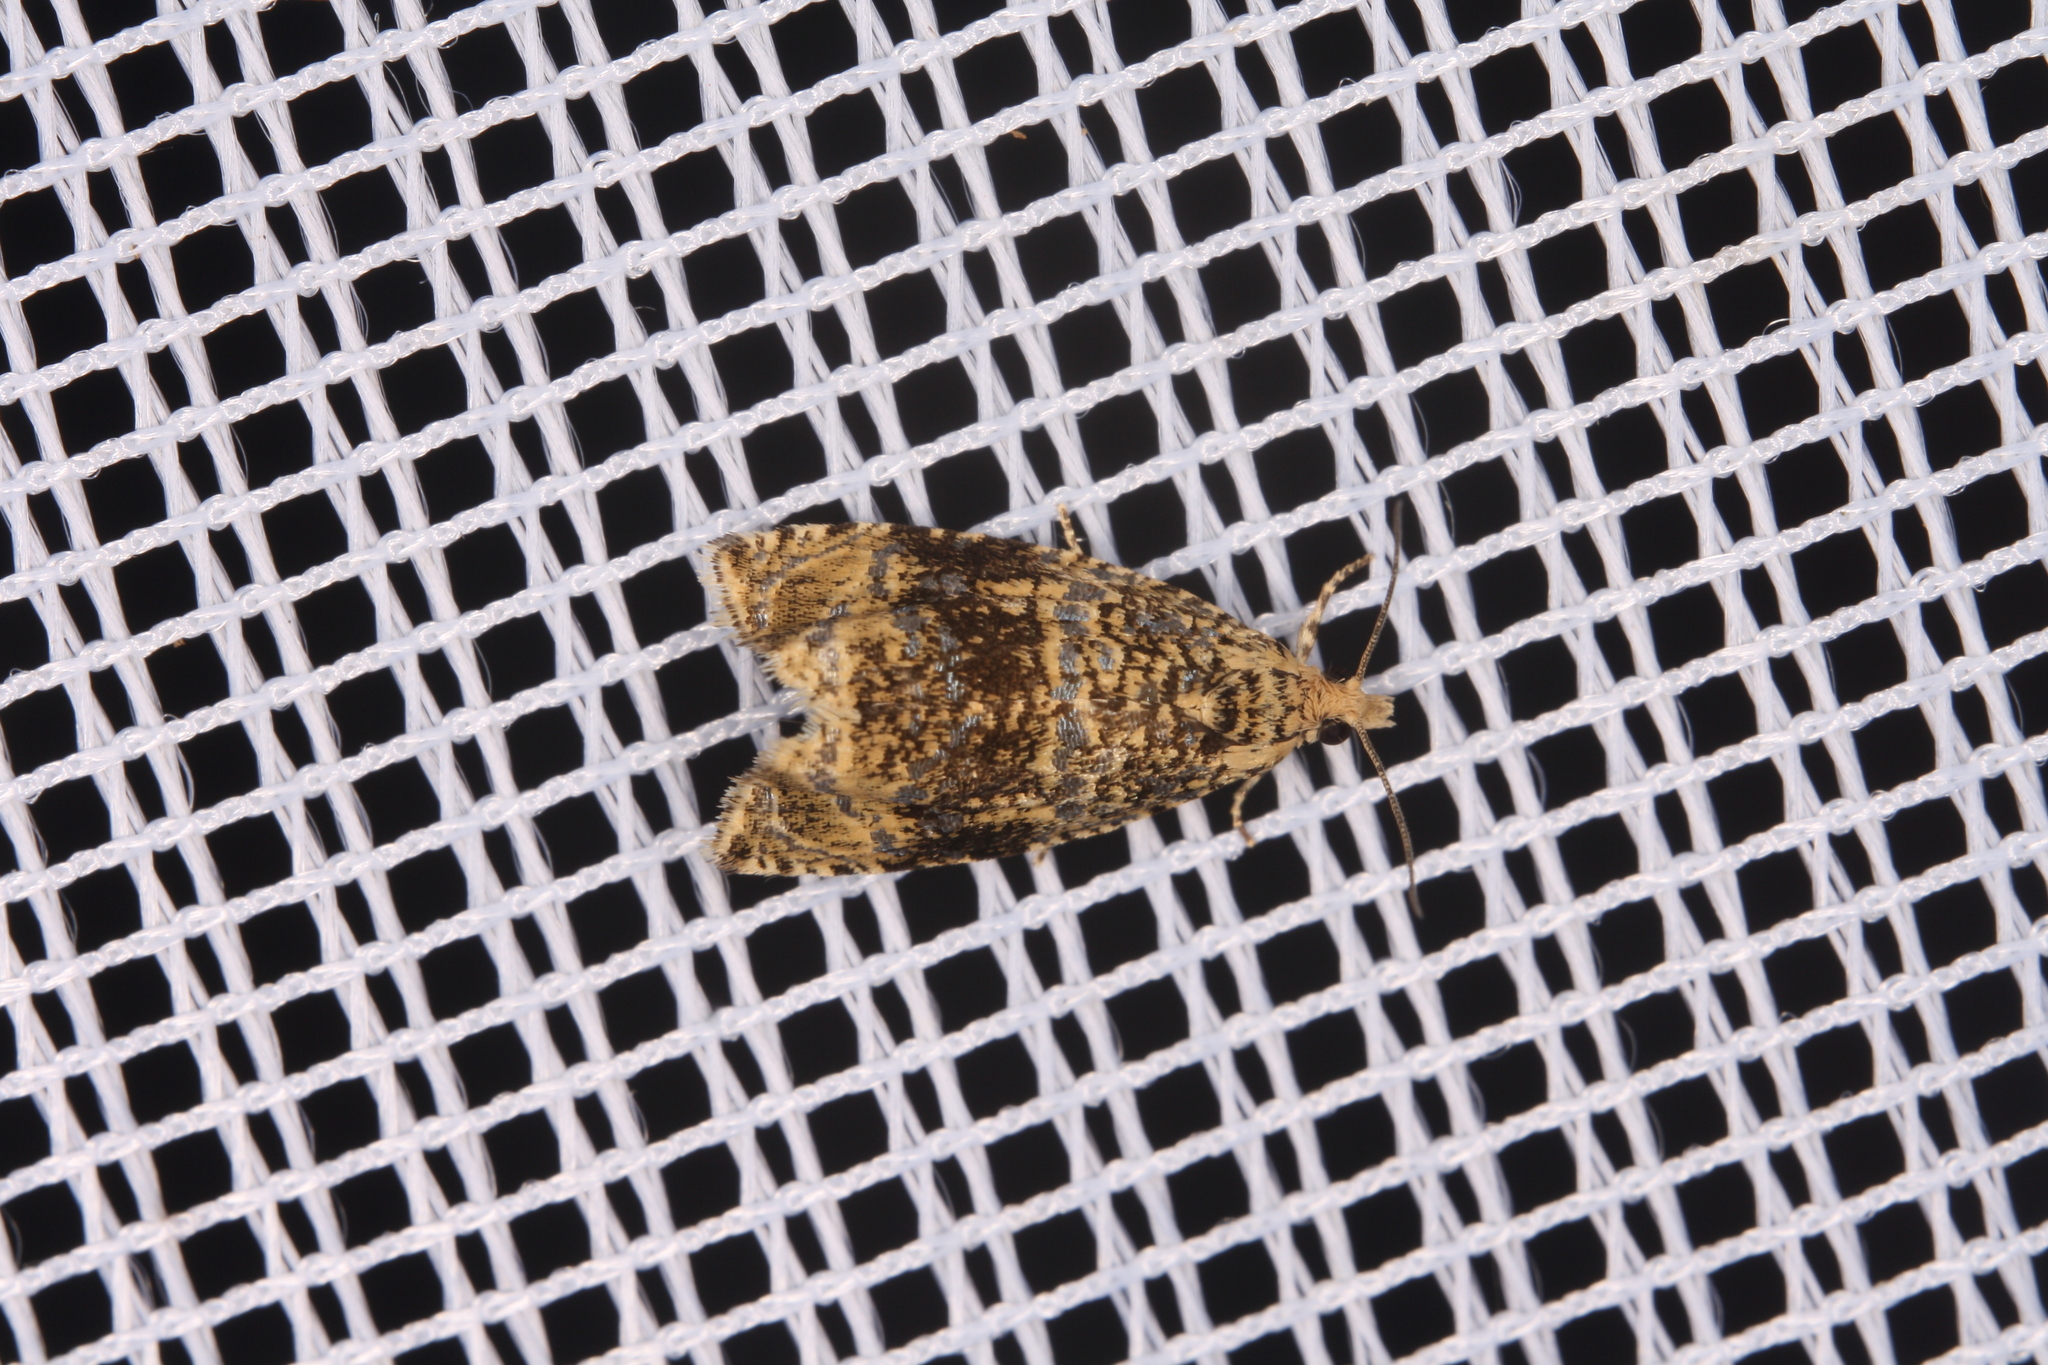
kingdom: Animalia
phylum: Arthropoda
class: Insecta
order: Lepidoptera
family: Tortricidae
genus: Syricoris
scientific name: Syricoris lacunana
